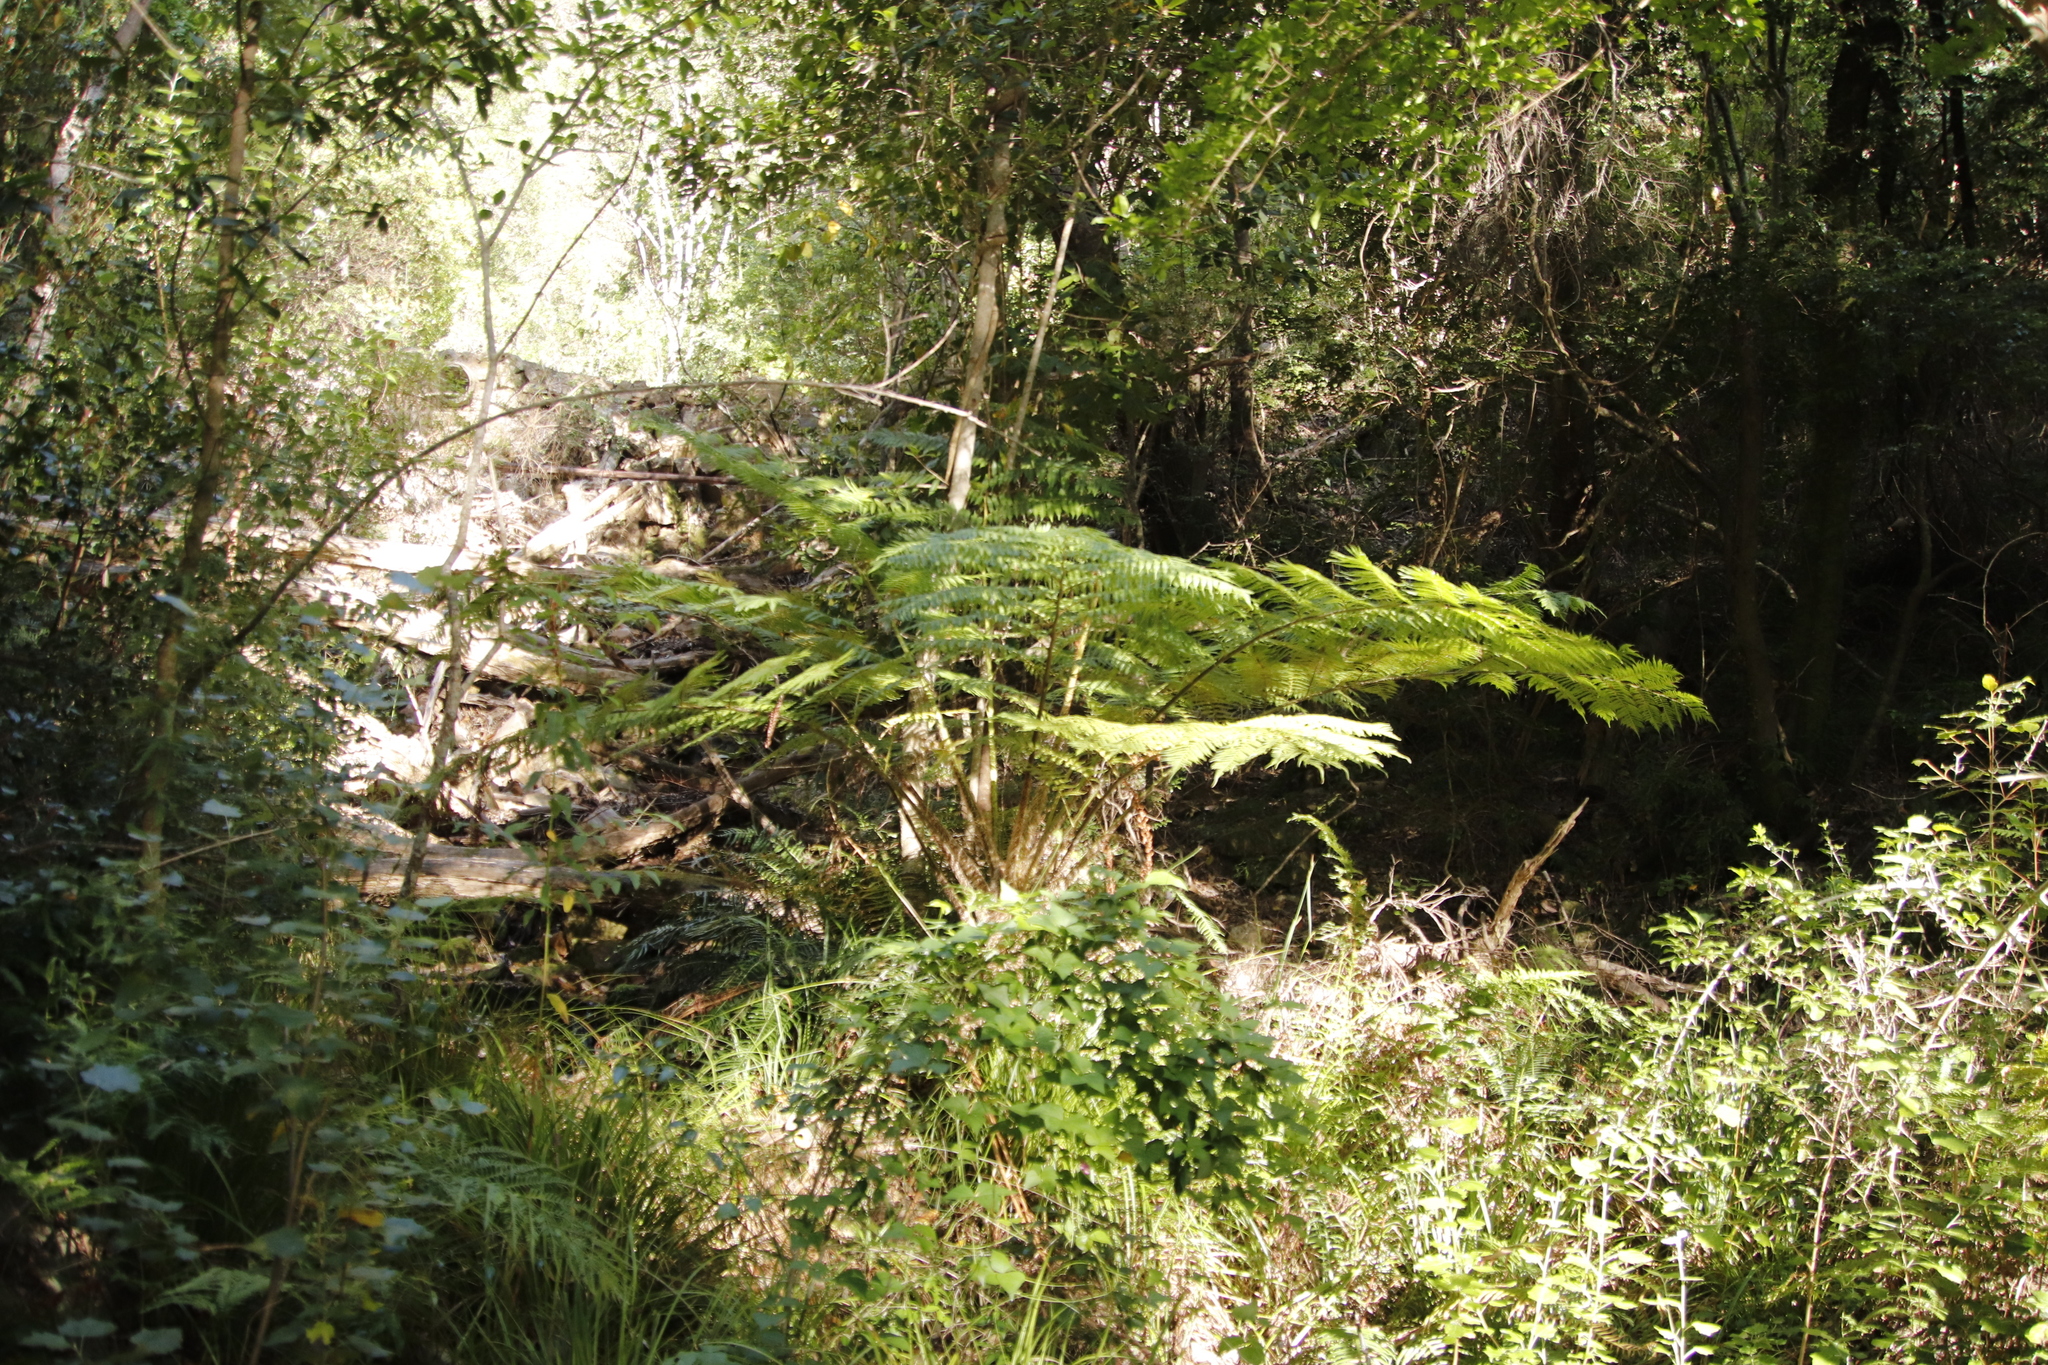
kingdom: Plantae
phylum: Tracheophyta
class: Polypodiopsida
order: Cyatheales
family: Cyatheaceae
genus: Sphaeropteris
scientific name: Sphaeropteris cooperi
